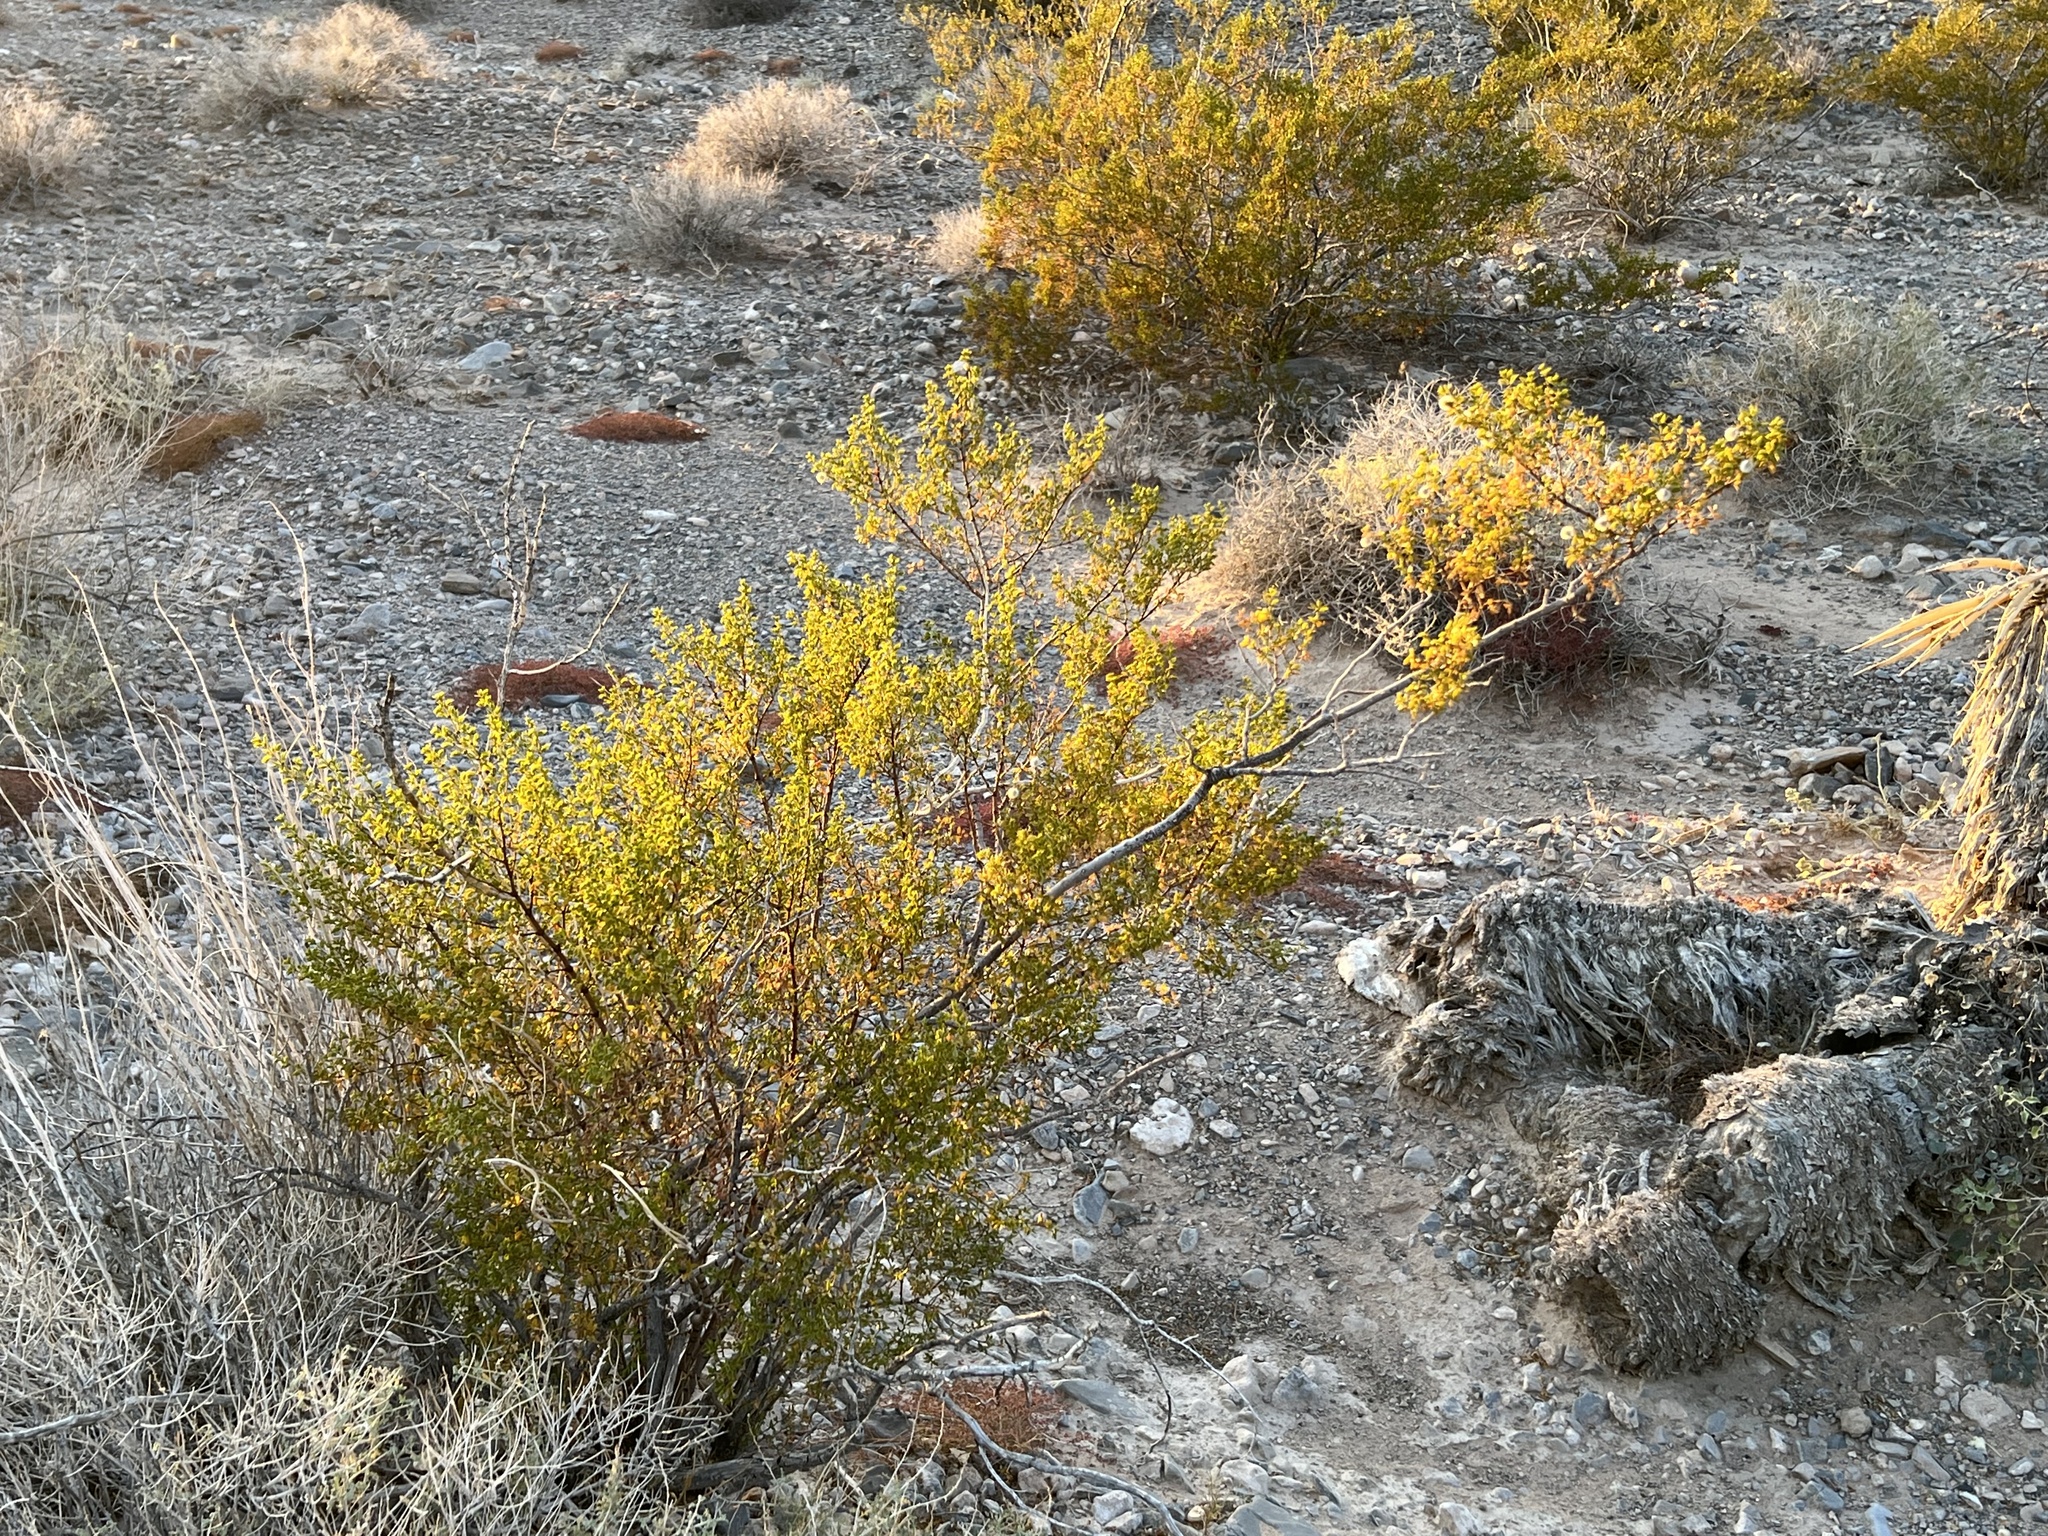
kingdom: Plantae
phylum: Tracheophyta
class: Magnoliopsida
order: Zygophyllales
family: Zygophyllaceae
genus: Larrea
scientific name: Larrea tridentata
